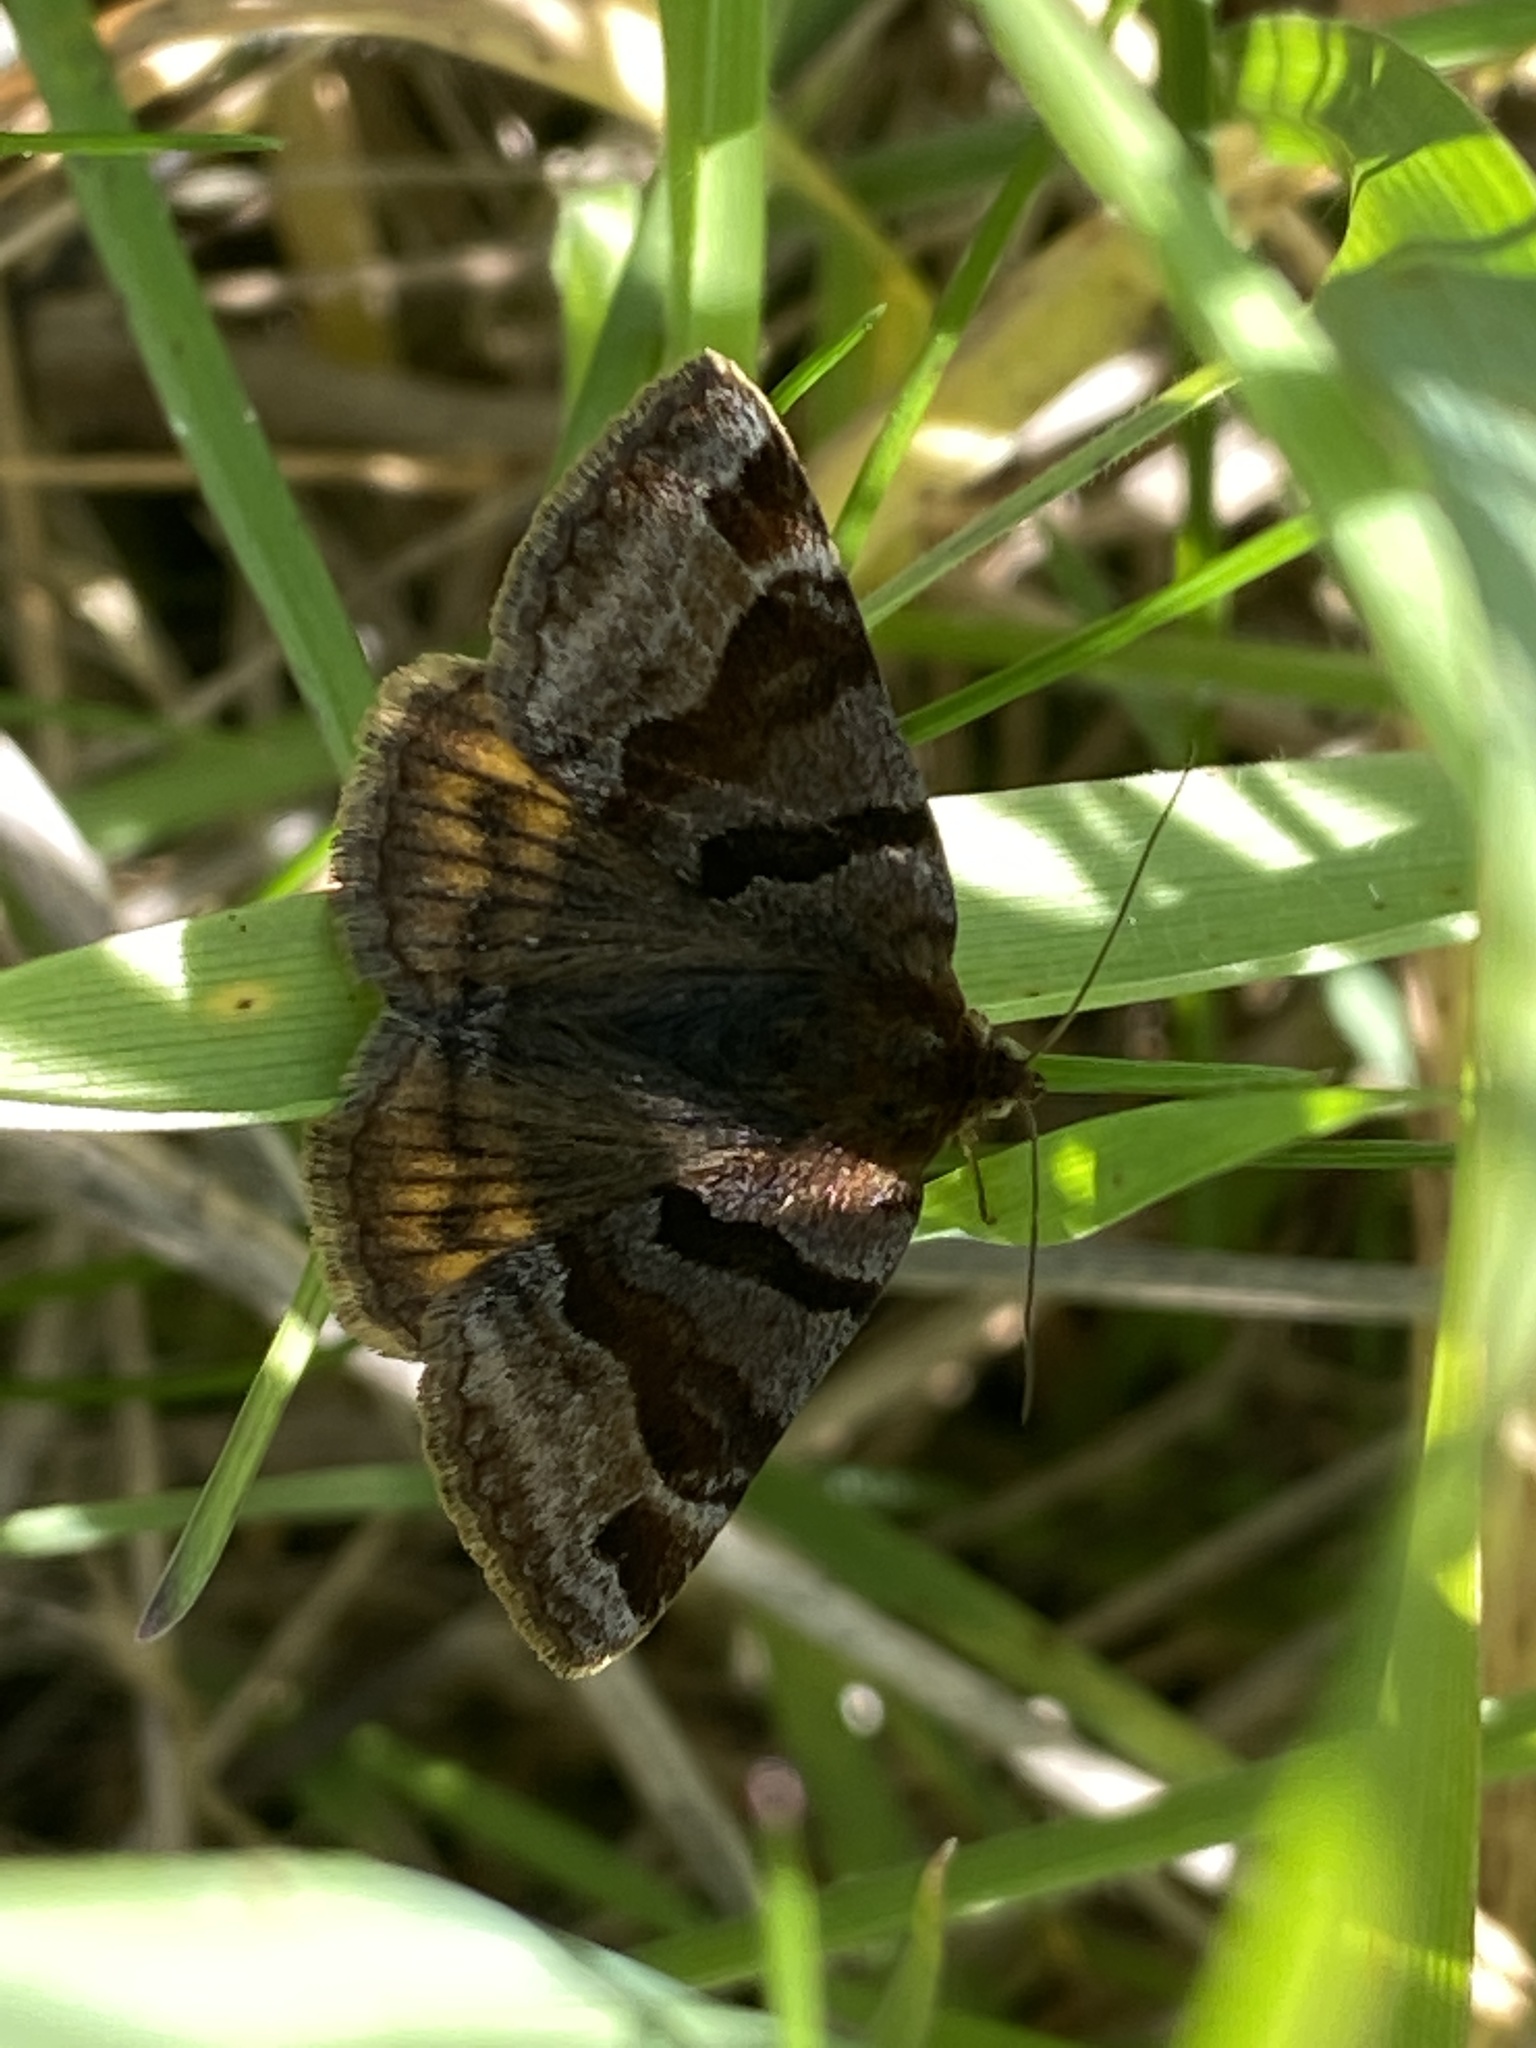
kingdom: Animalia
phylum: Arthropoda
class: Insecta
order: Lepidoptera
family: Erebidae
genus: Euclidia
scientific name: Euclidia glyphica
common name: Burnet companion
